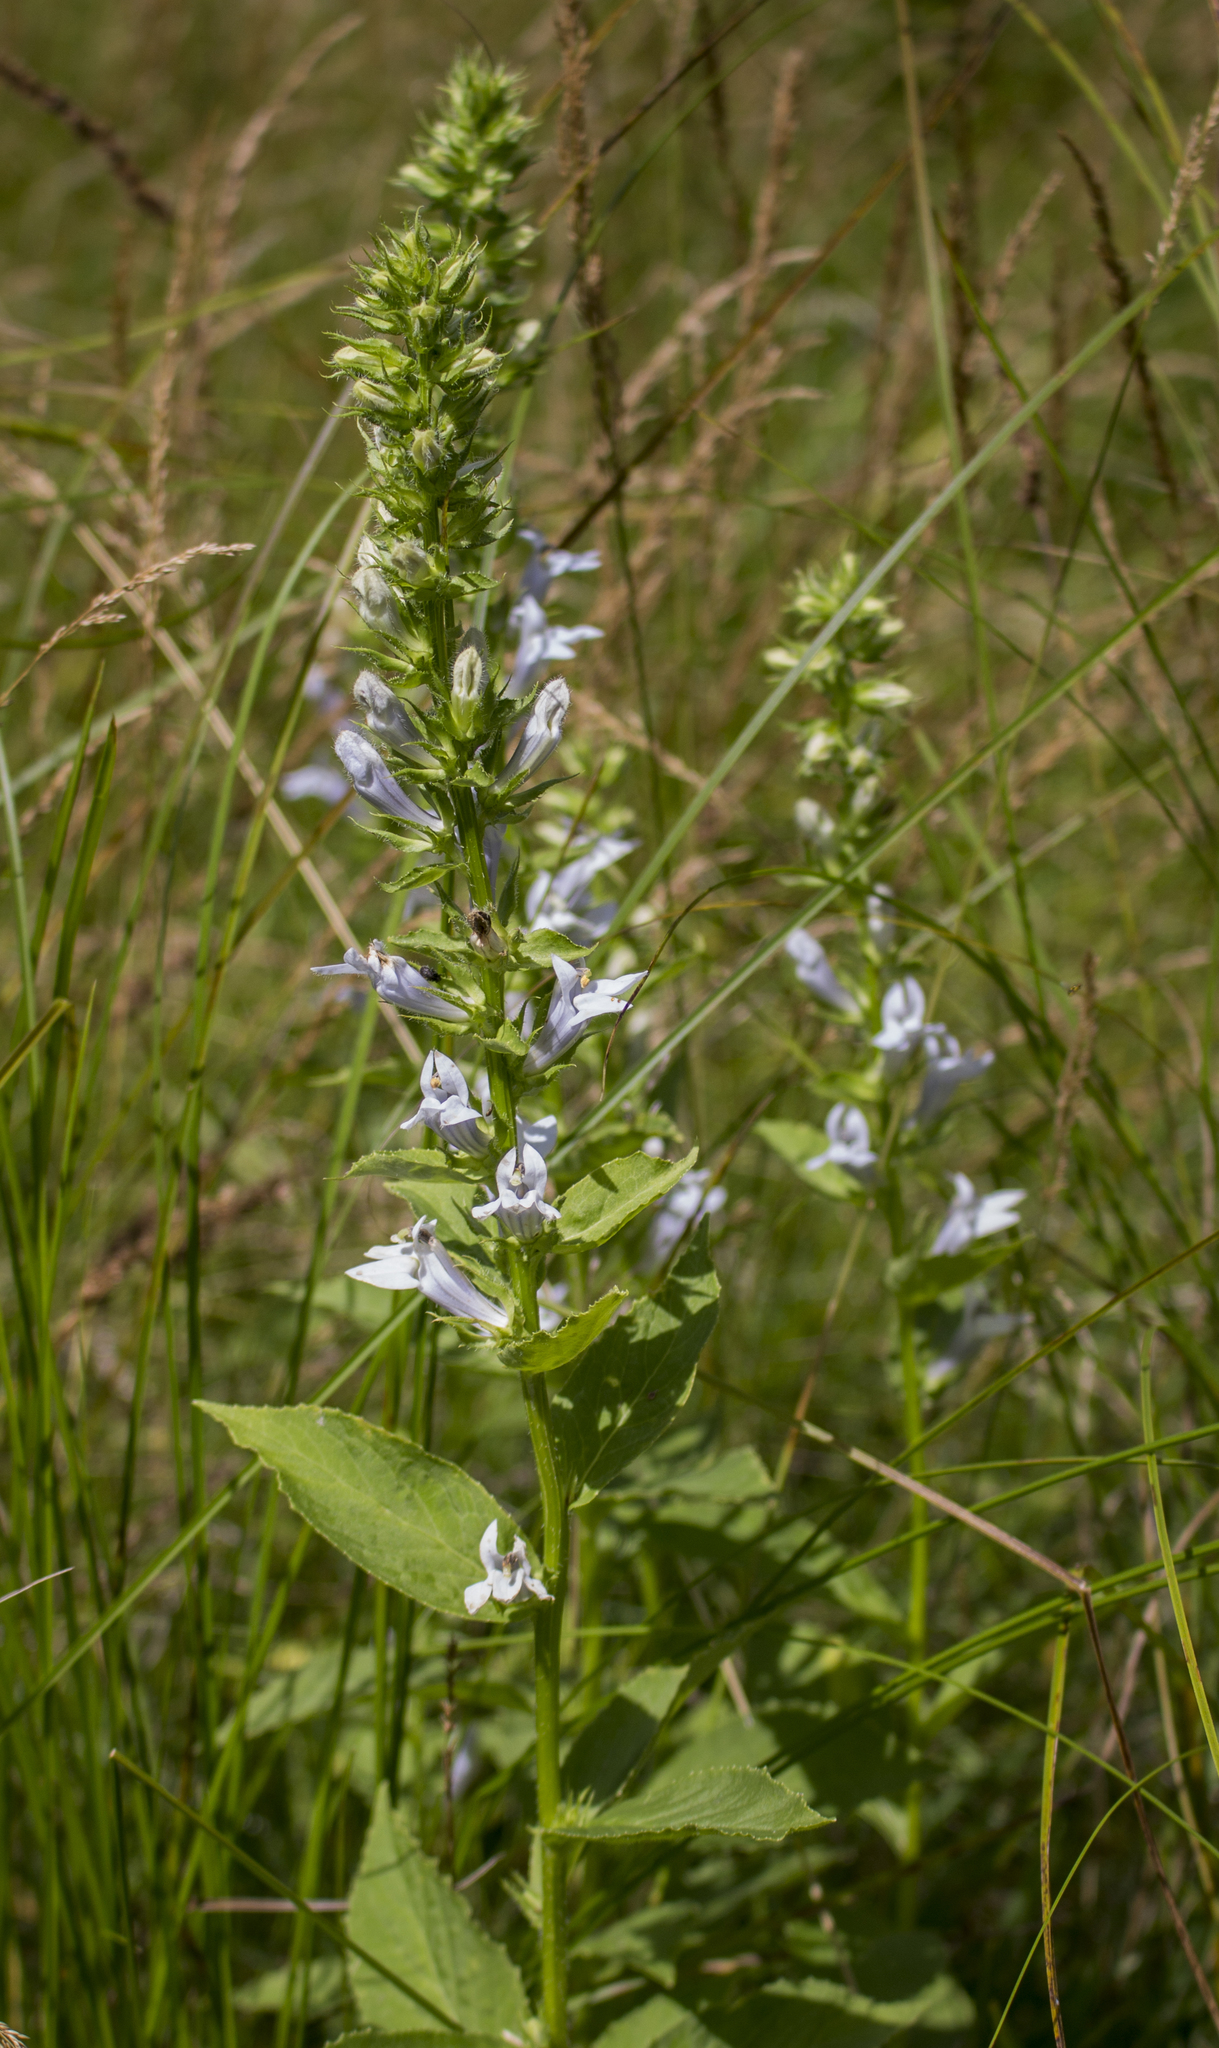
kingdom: Plantae
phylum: Tracheophyta
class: Magnoliopsida
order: Asterales
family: Campanulaceae
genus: Lobelia
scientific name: Lobelia siphilitica
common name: Great lobelia
